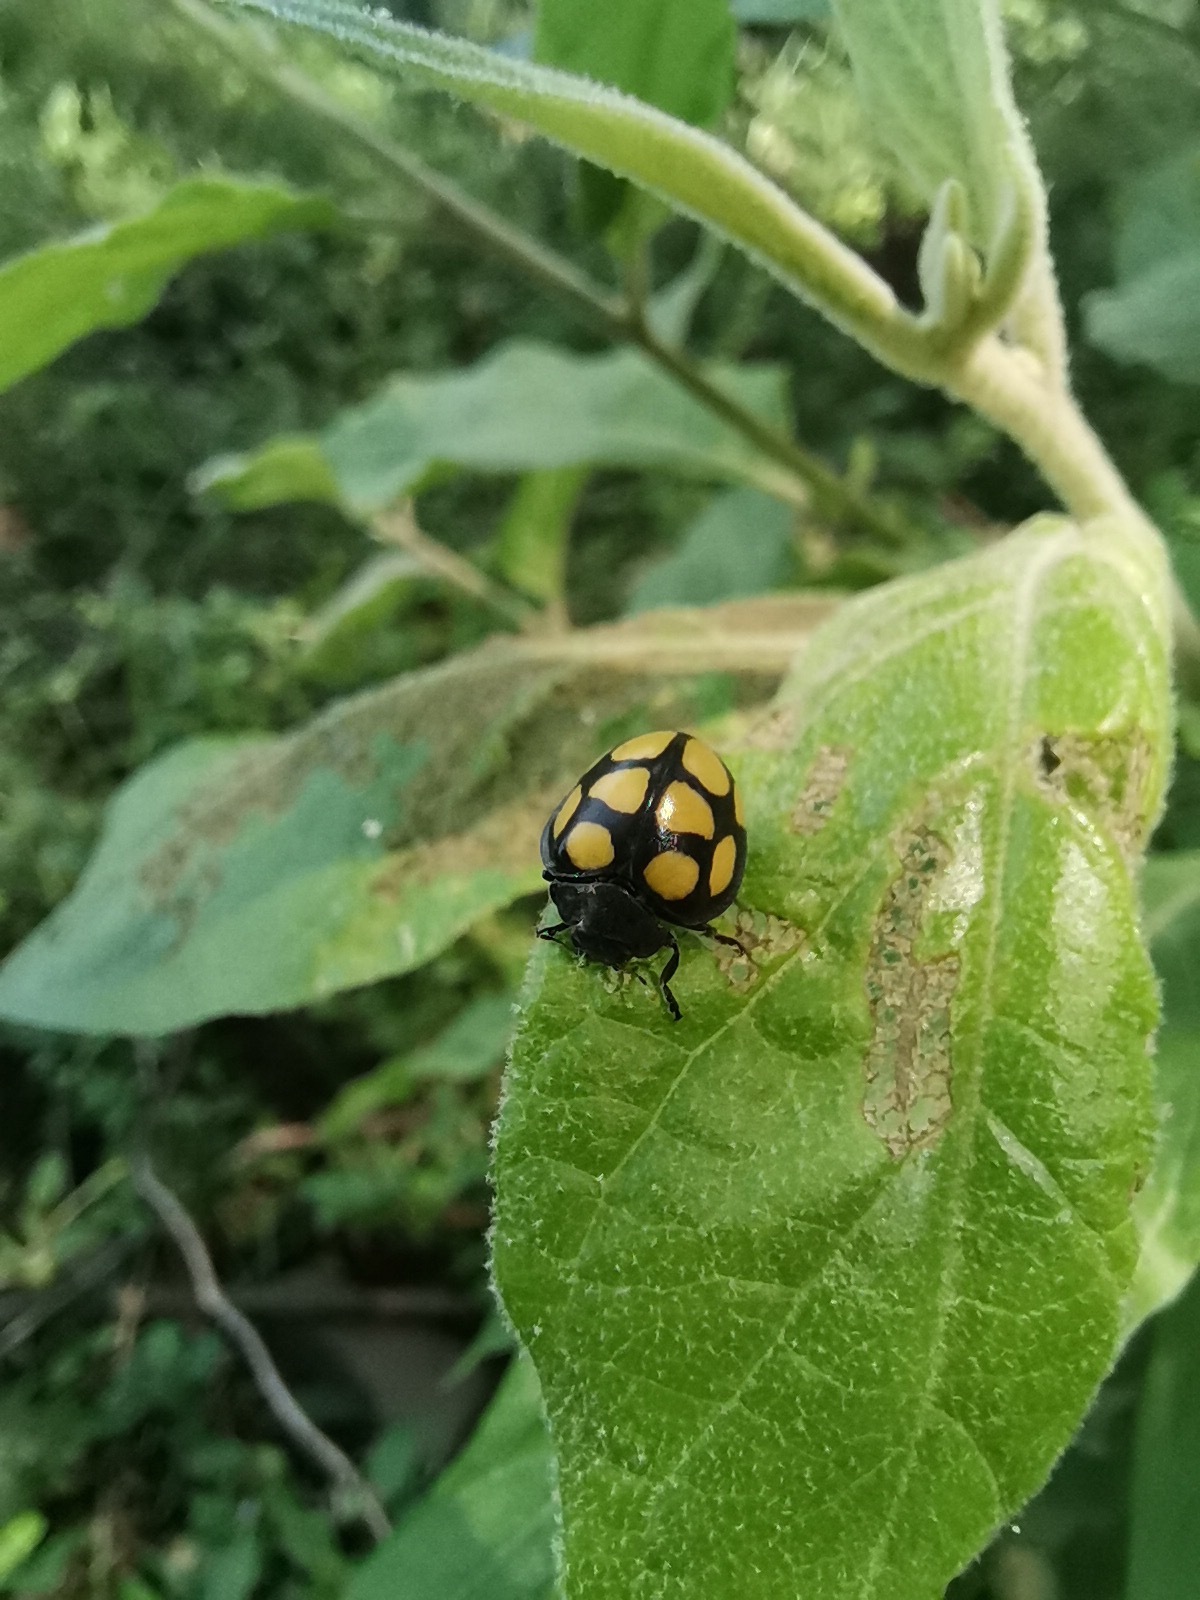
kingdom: Animalia
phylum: Arthropoda
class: Insecta
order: Coleoptera
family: Coccinellidae
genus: Epilachna
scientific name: Epilachna
